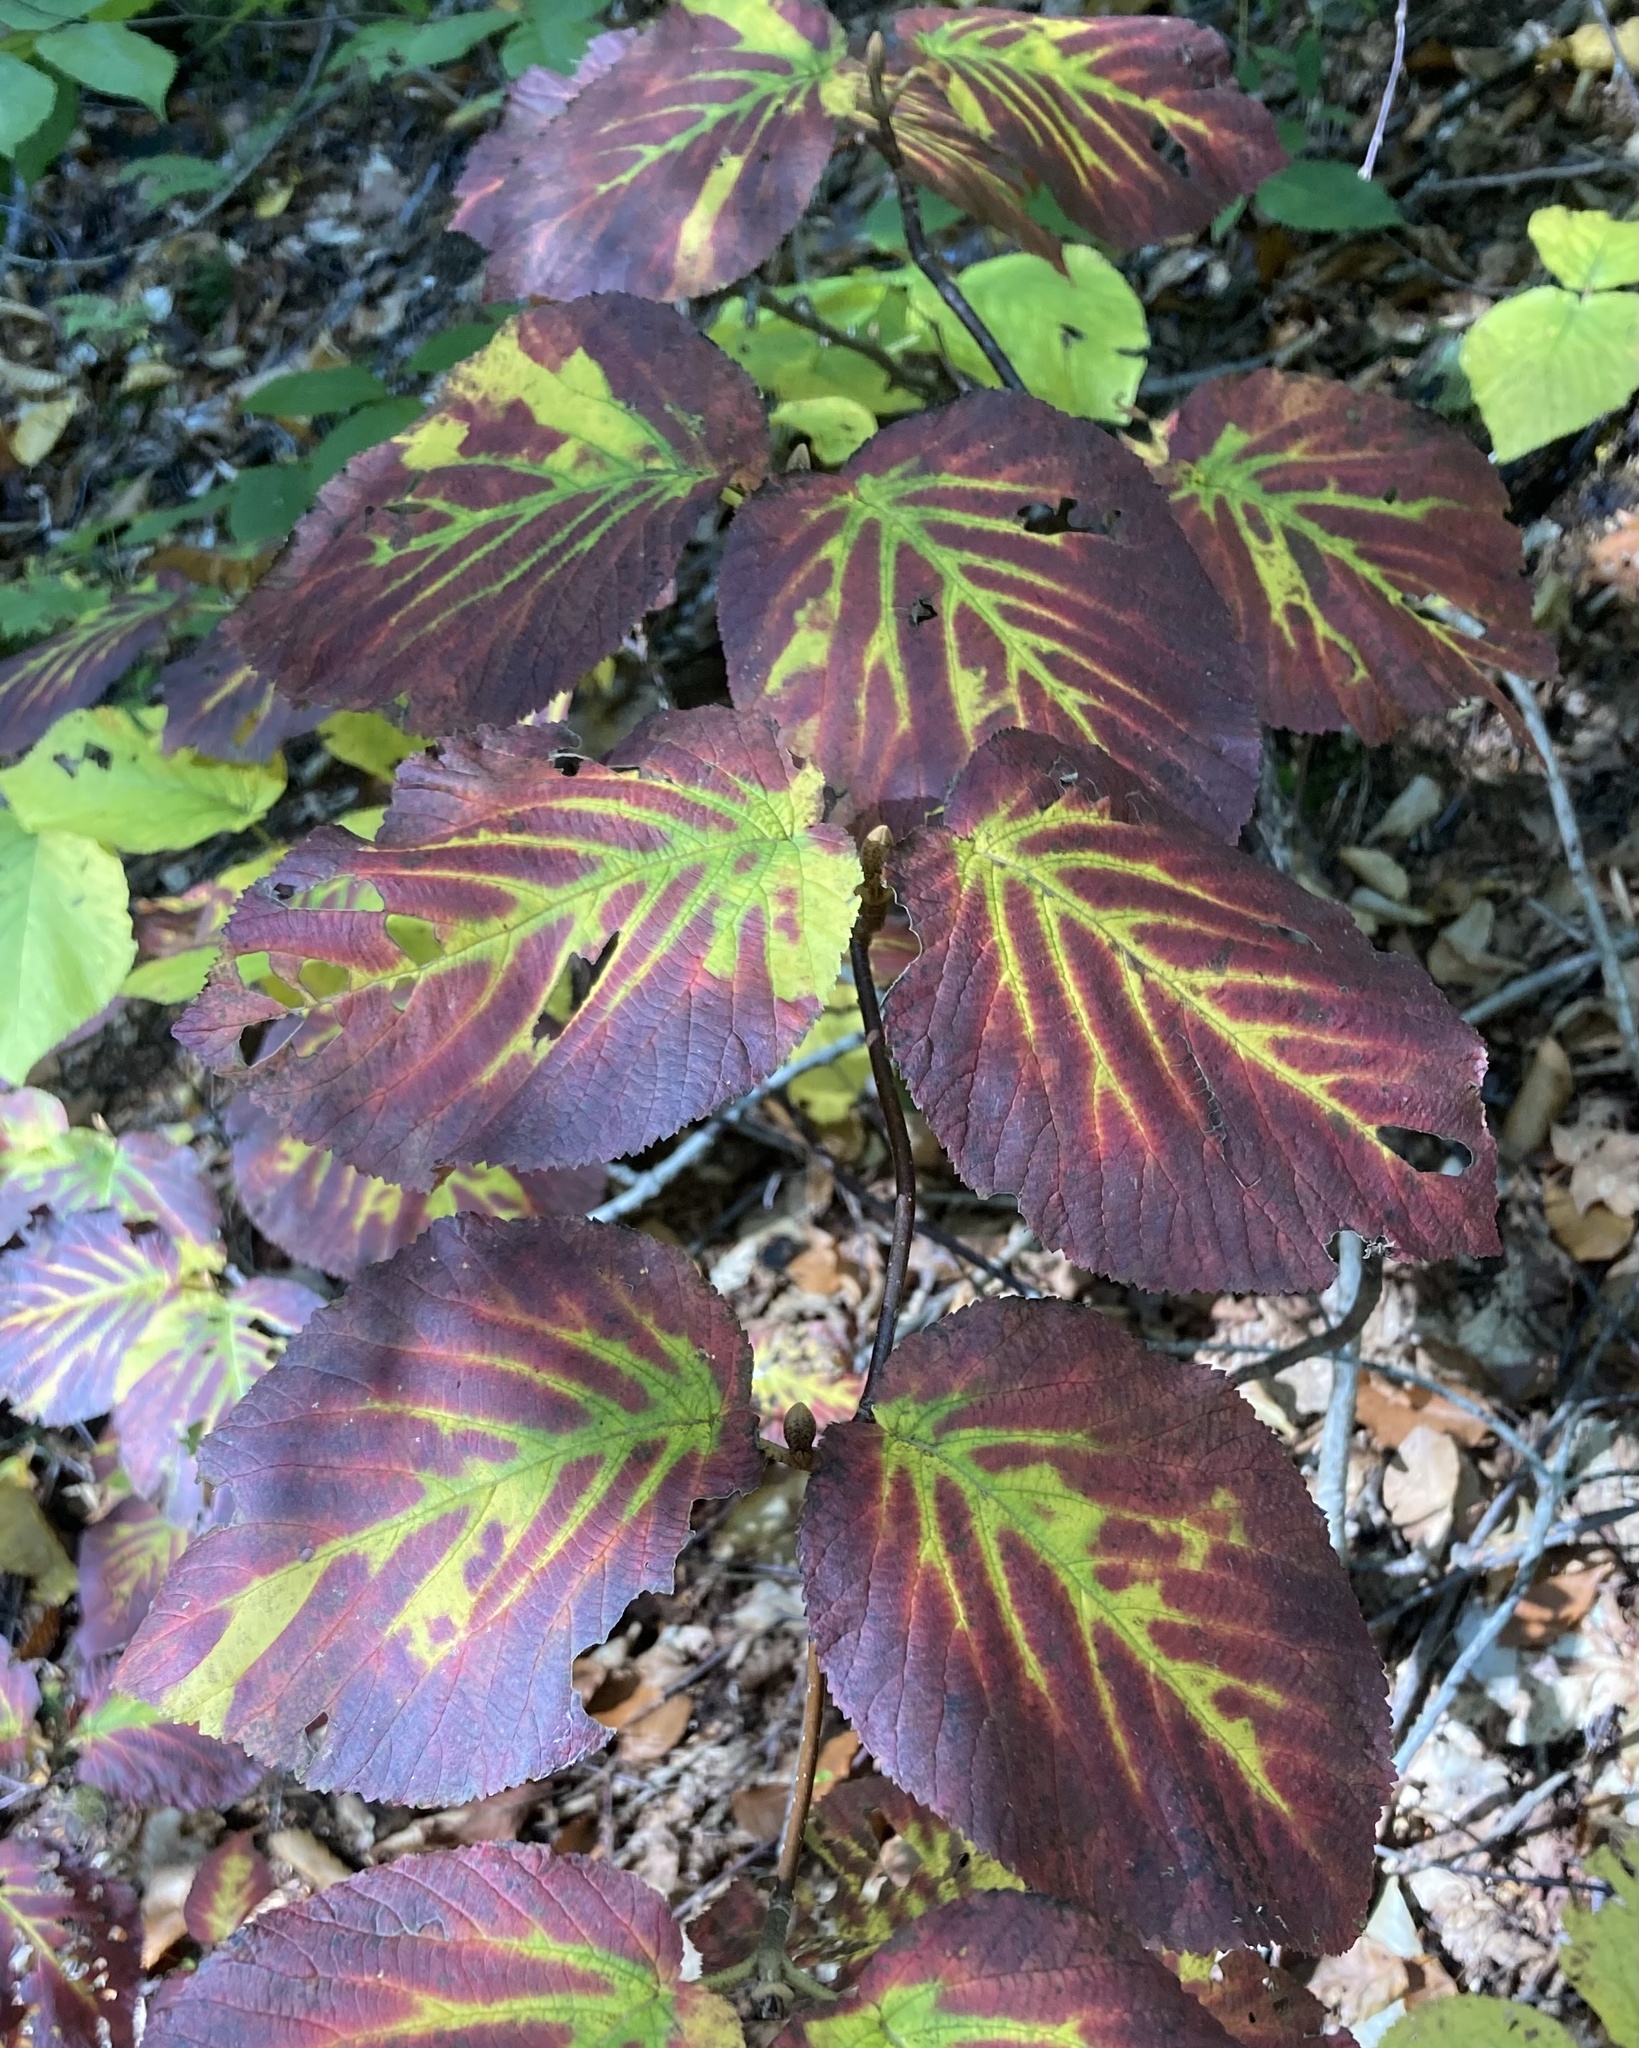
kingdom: Plantae
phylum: Tracheophyta
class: Magnoliopsida
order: Dipsacales
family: Viburnaceae
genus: Viburnum
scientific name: Viburnum lantanoides
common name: Hobblebush
